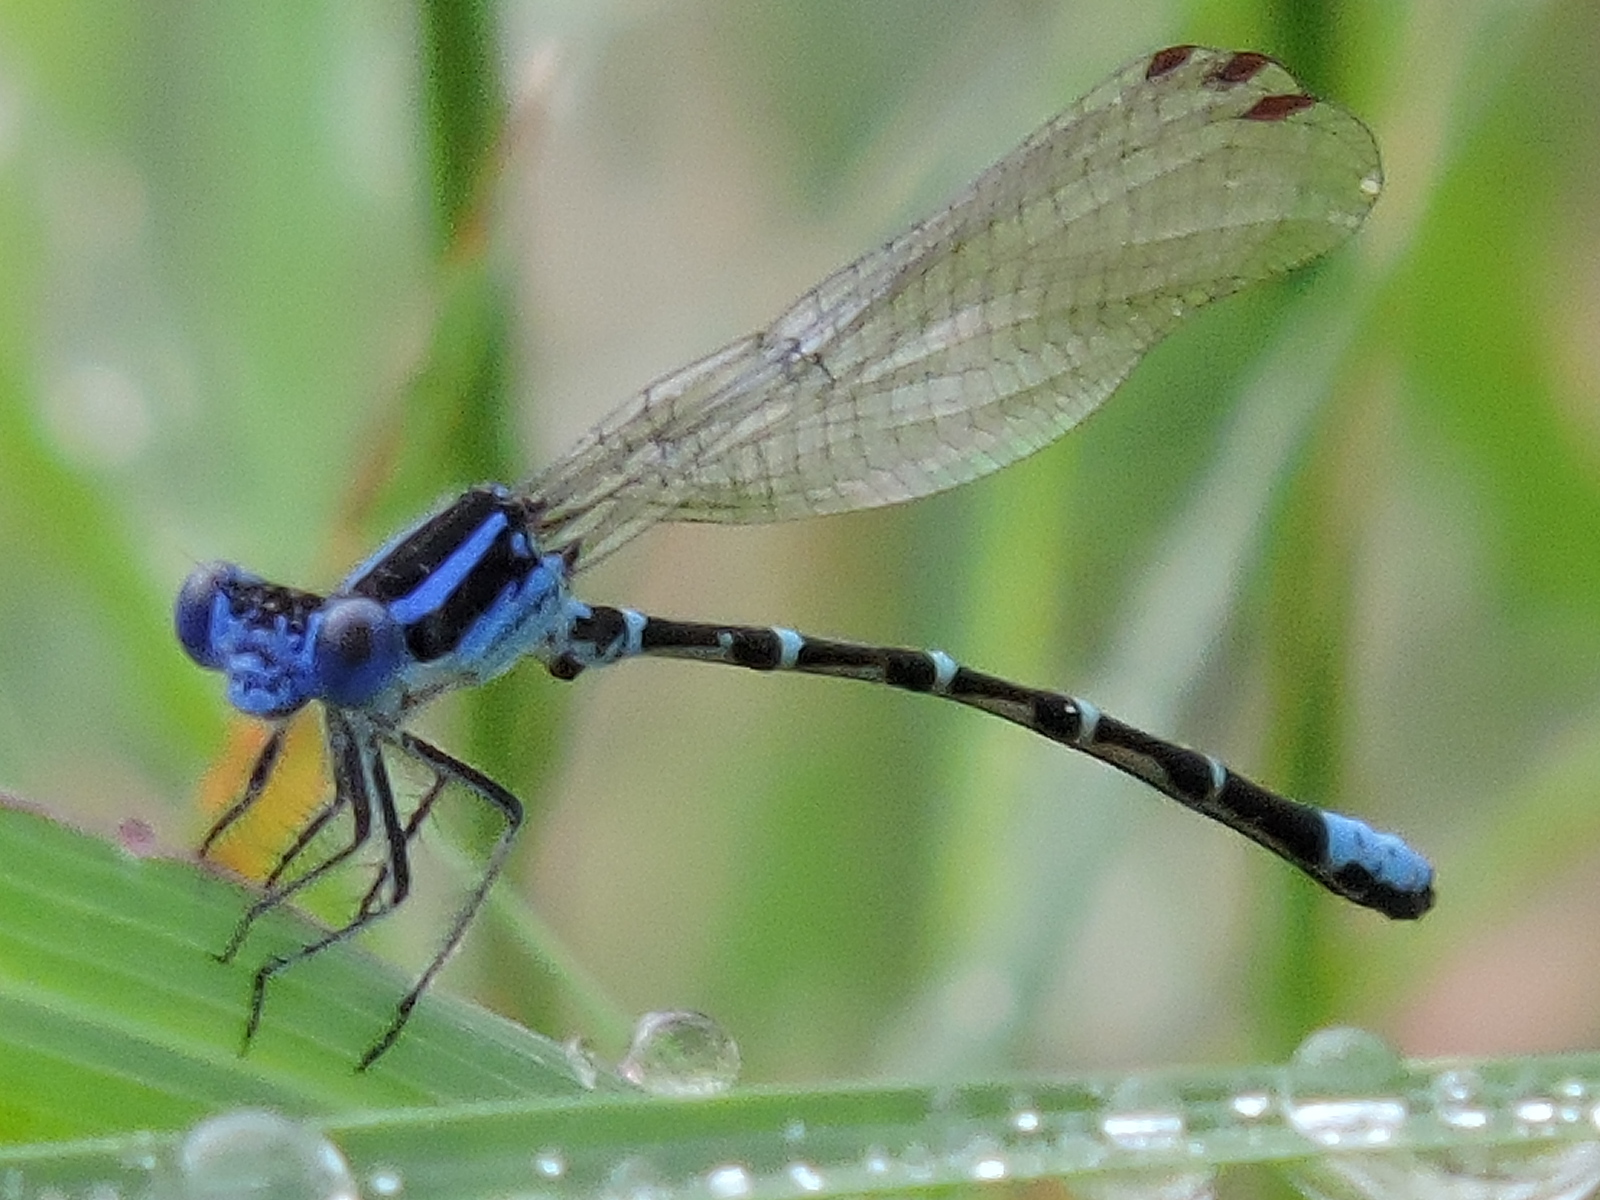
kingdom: Animalia
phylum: Arthropoda
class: Insecta
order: Odonata
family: Coenagrionidae
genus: Argia
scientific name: Argia sedula
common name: Blue-ringed dancer
